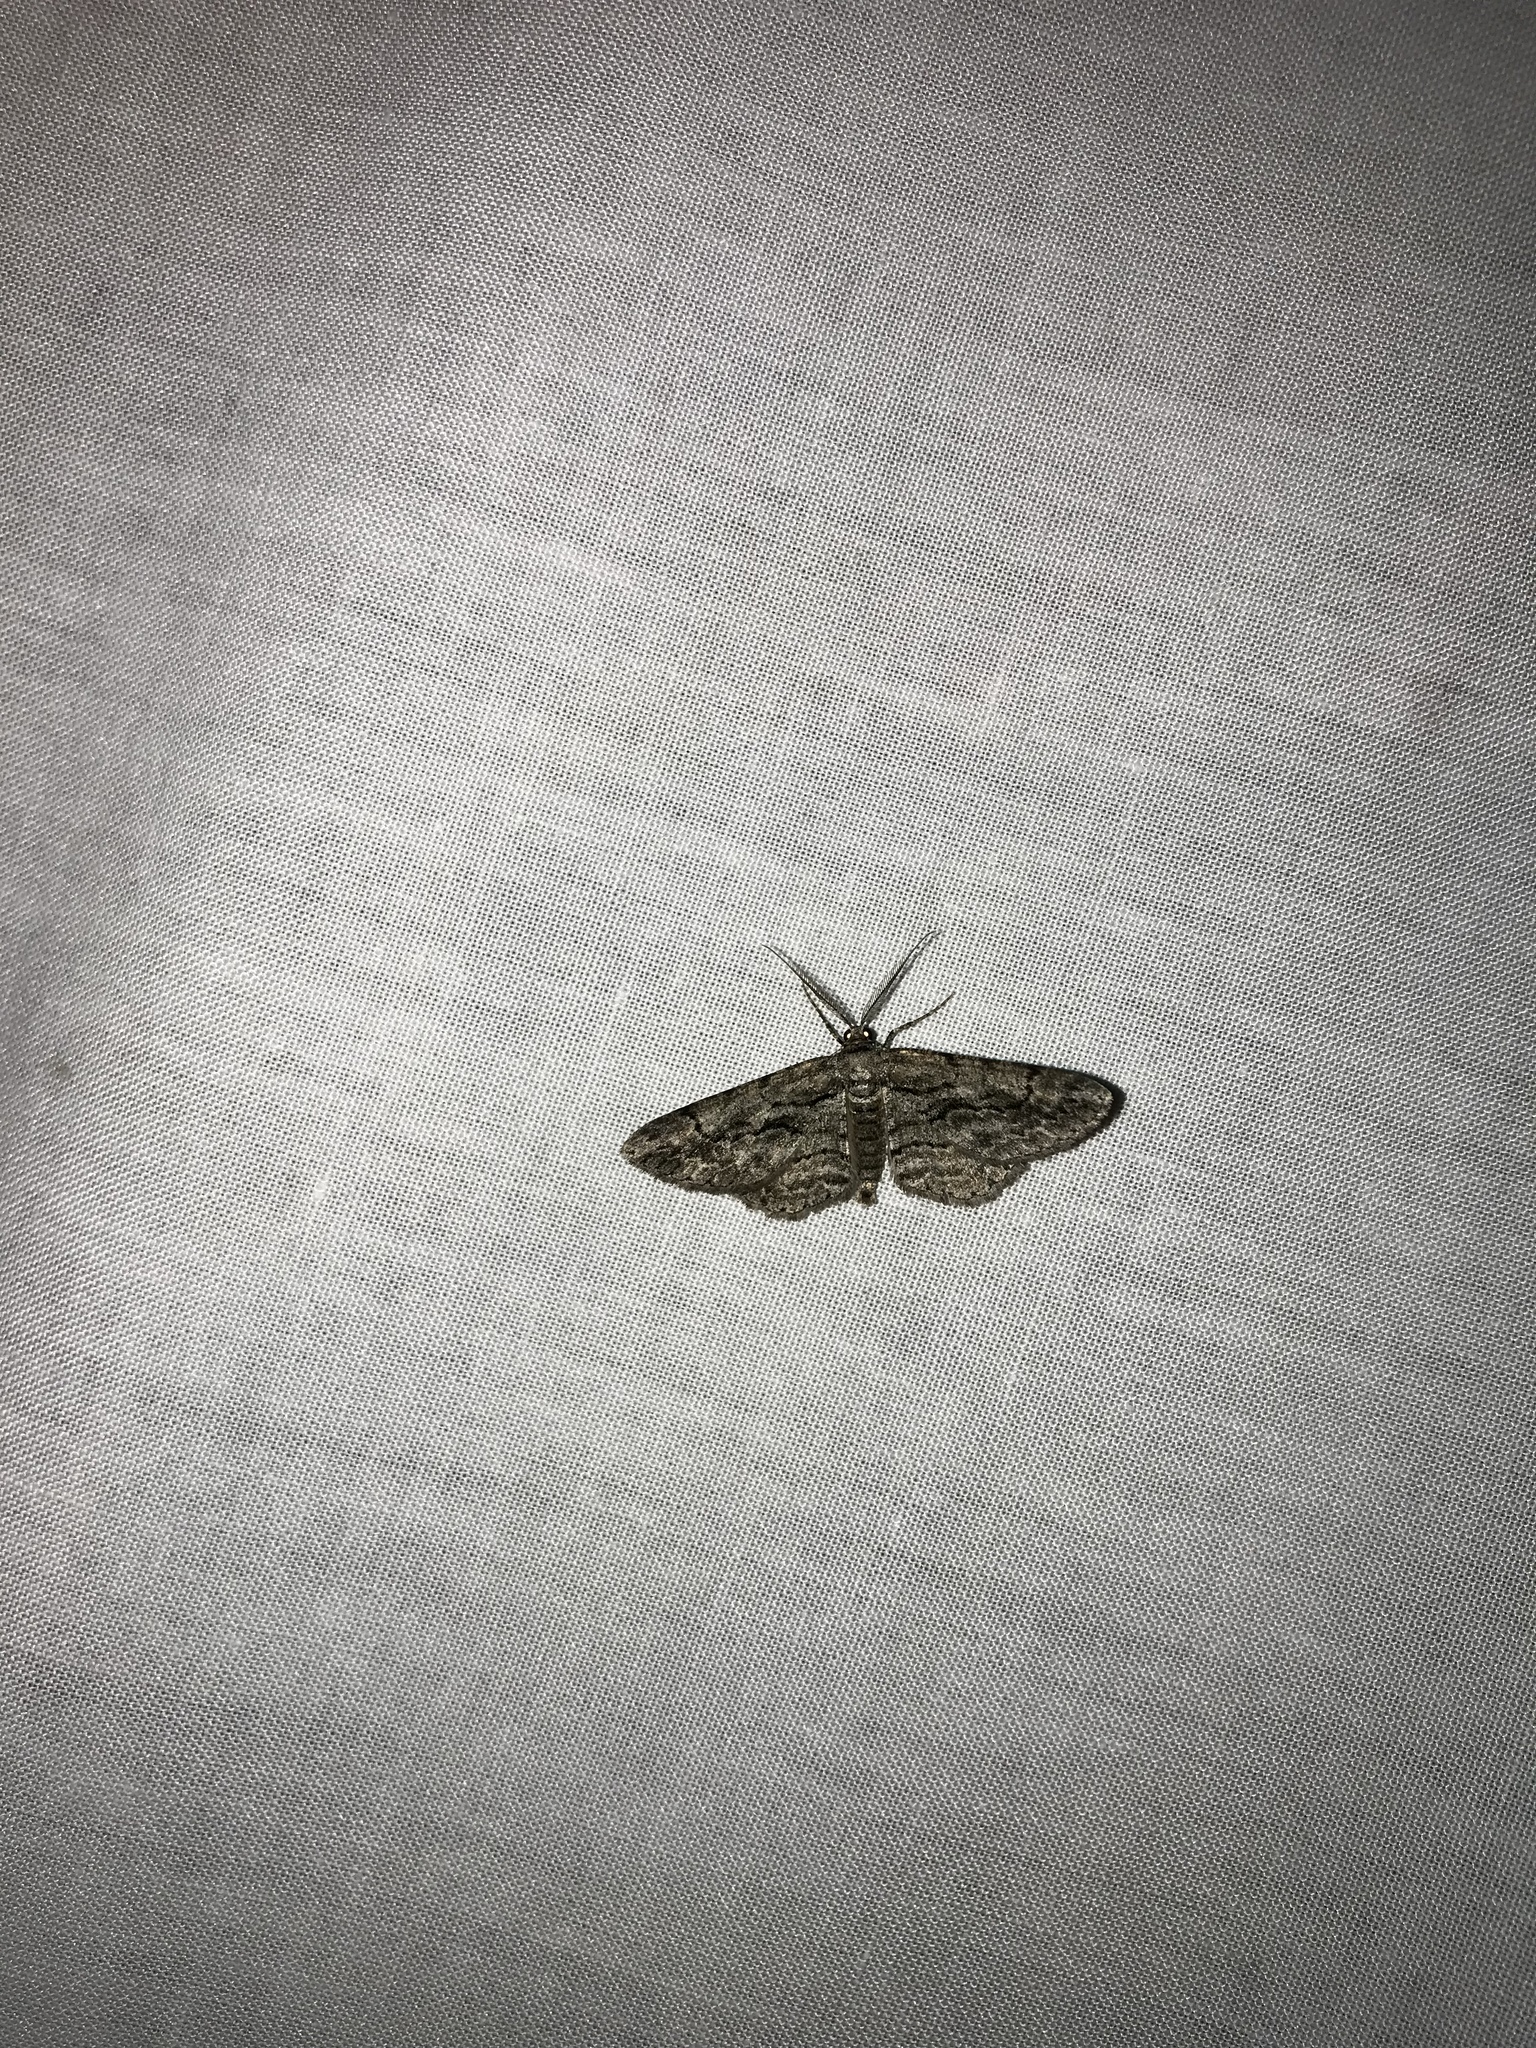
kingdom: Animalia
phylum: Arthropoda
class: Insecta
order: Lepidoptera
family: Geometridae
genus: Anavitrinella
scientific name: Anavitrinella pampinaria
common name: Common gray
